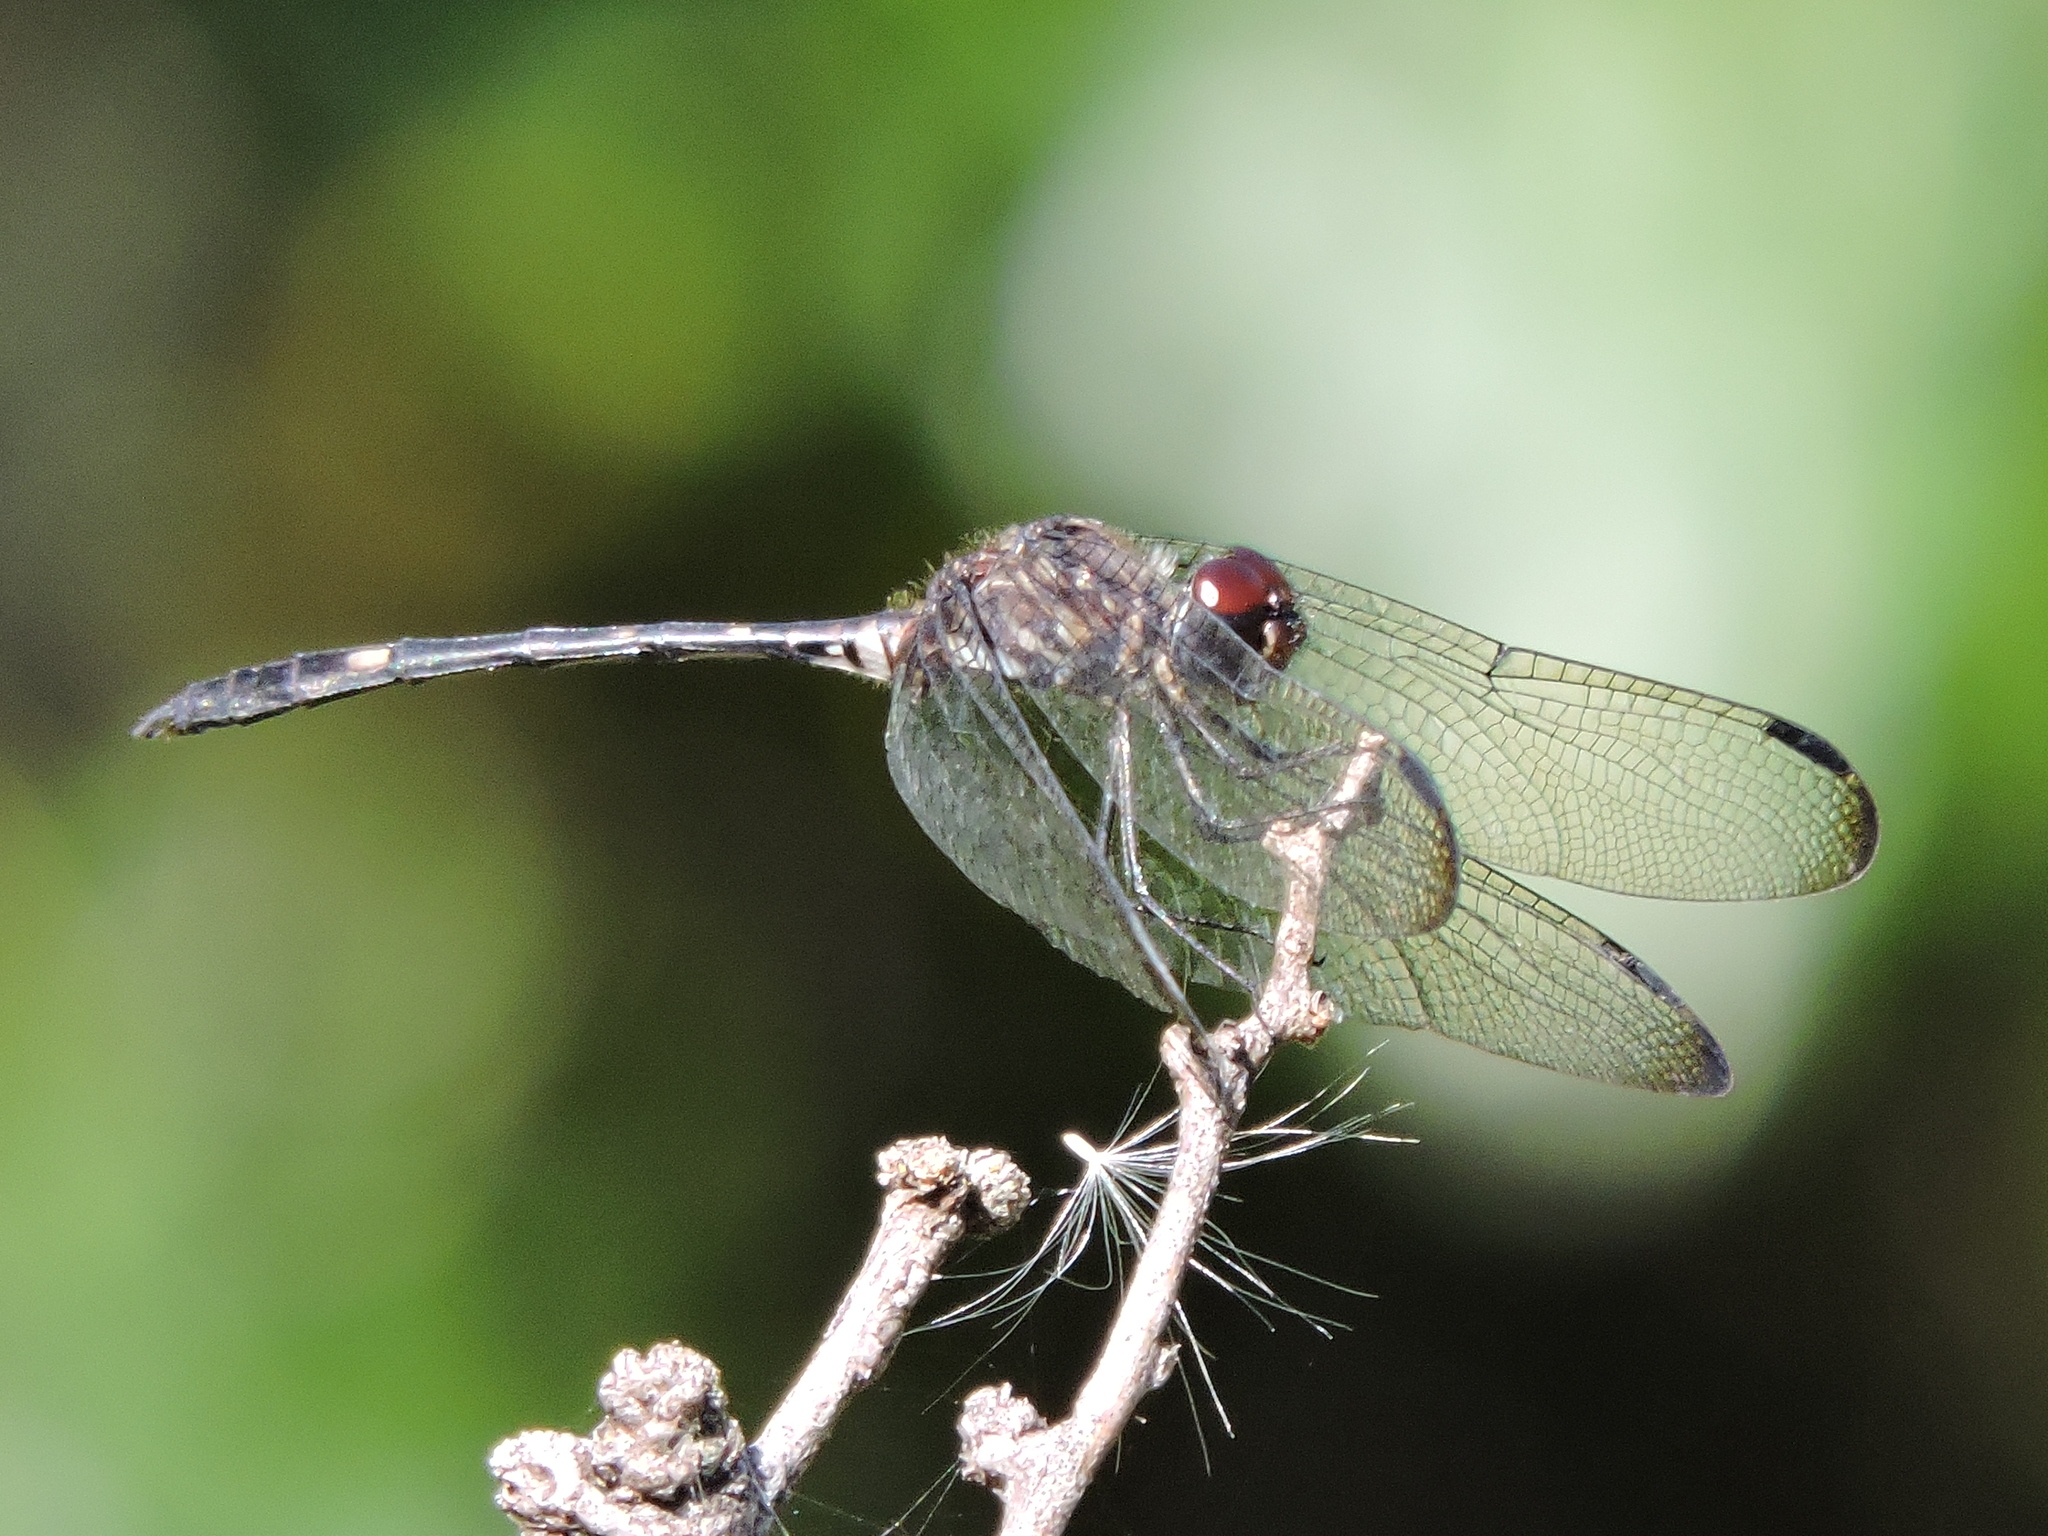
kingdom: Animalia
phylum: Arthropoda
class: Insecta
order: Odonata
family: Libellulidae
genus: Dythemis
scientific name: Dythemis velox
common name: Swift setwing
